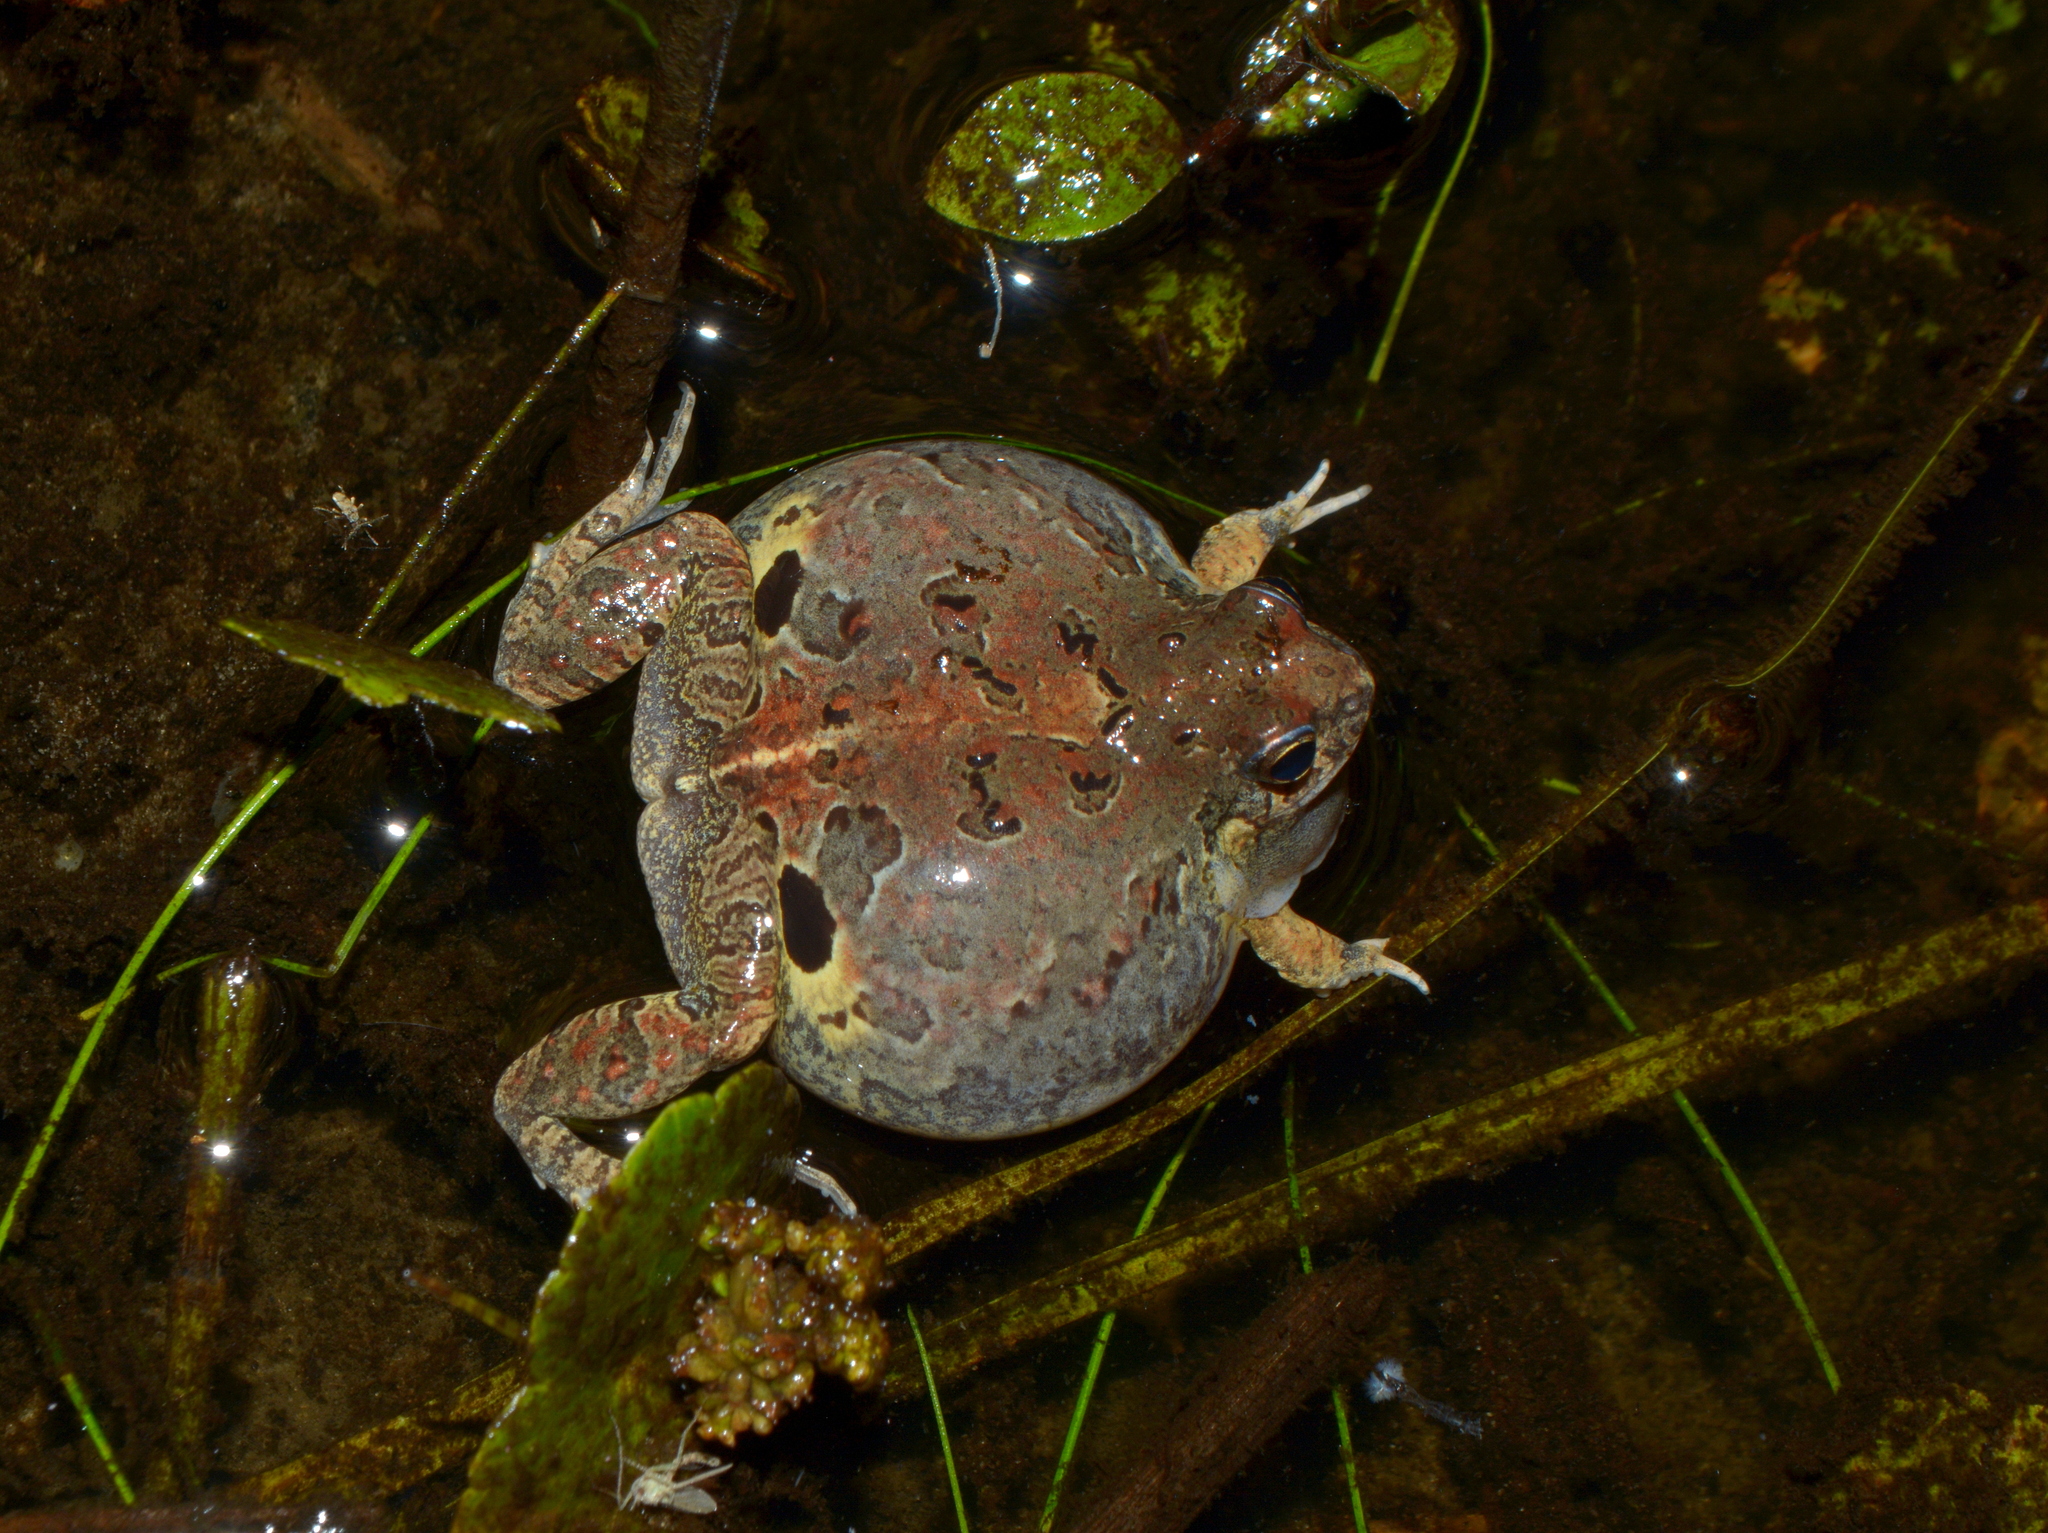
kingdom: Animalia
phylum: Chordata
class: Amphibia
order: Anura
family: Leptodactylidae
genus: Physalaemus
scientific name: Physalaemus biligonigerus
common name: Weeping frog
